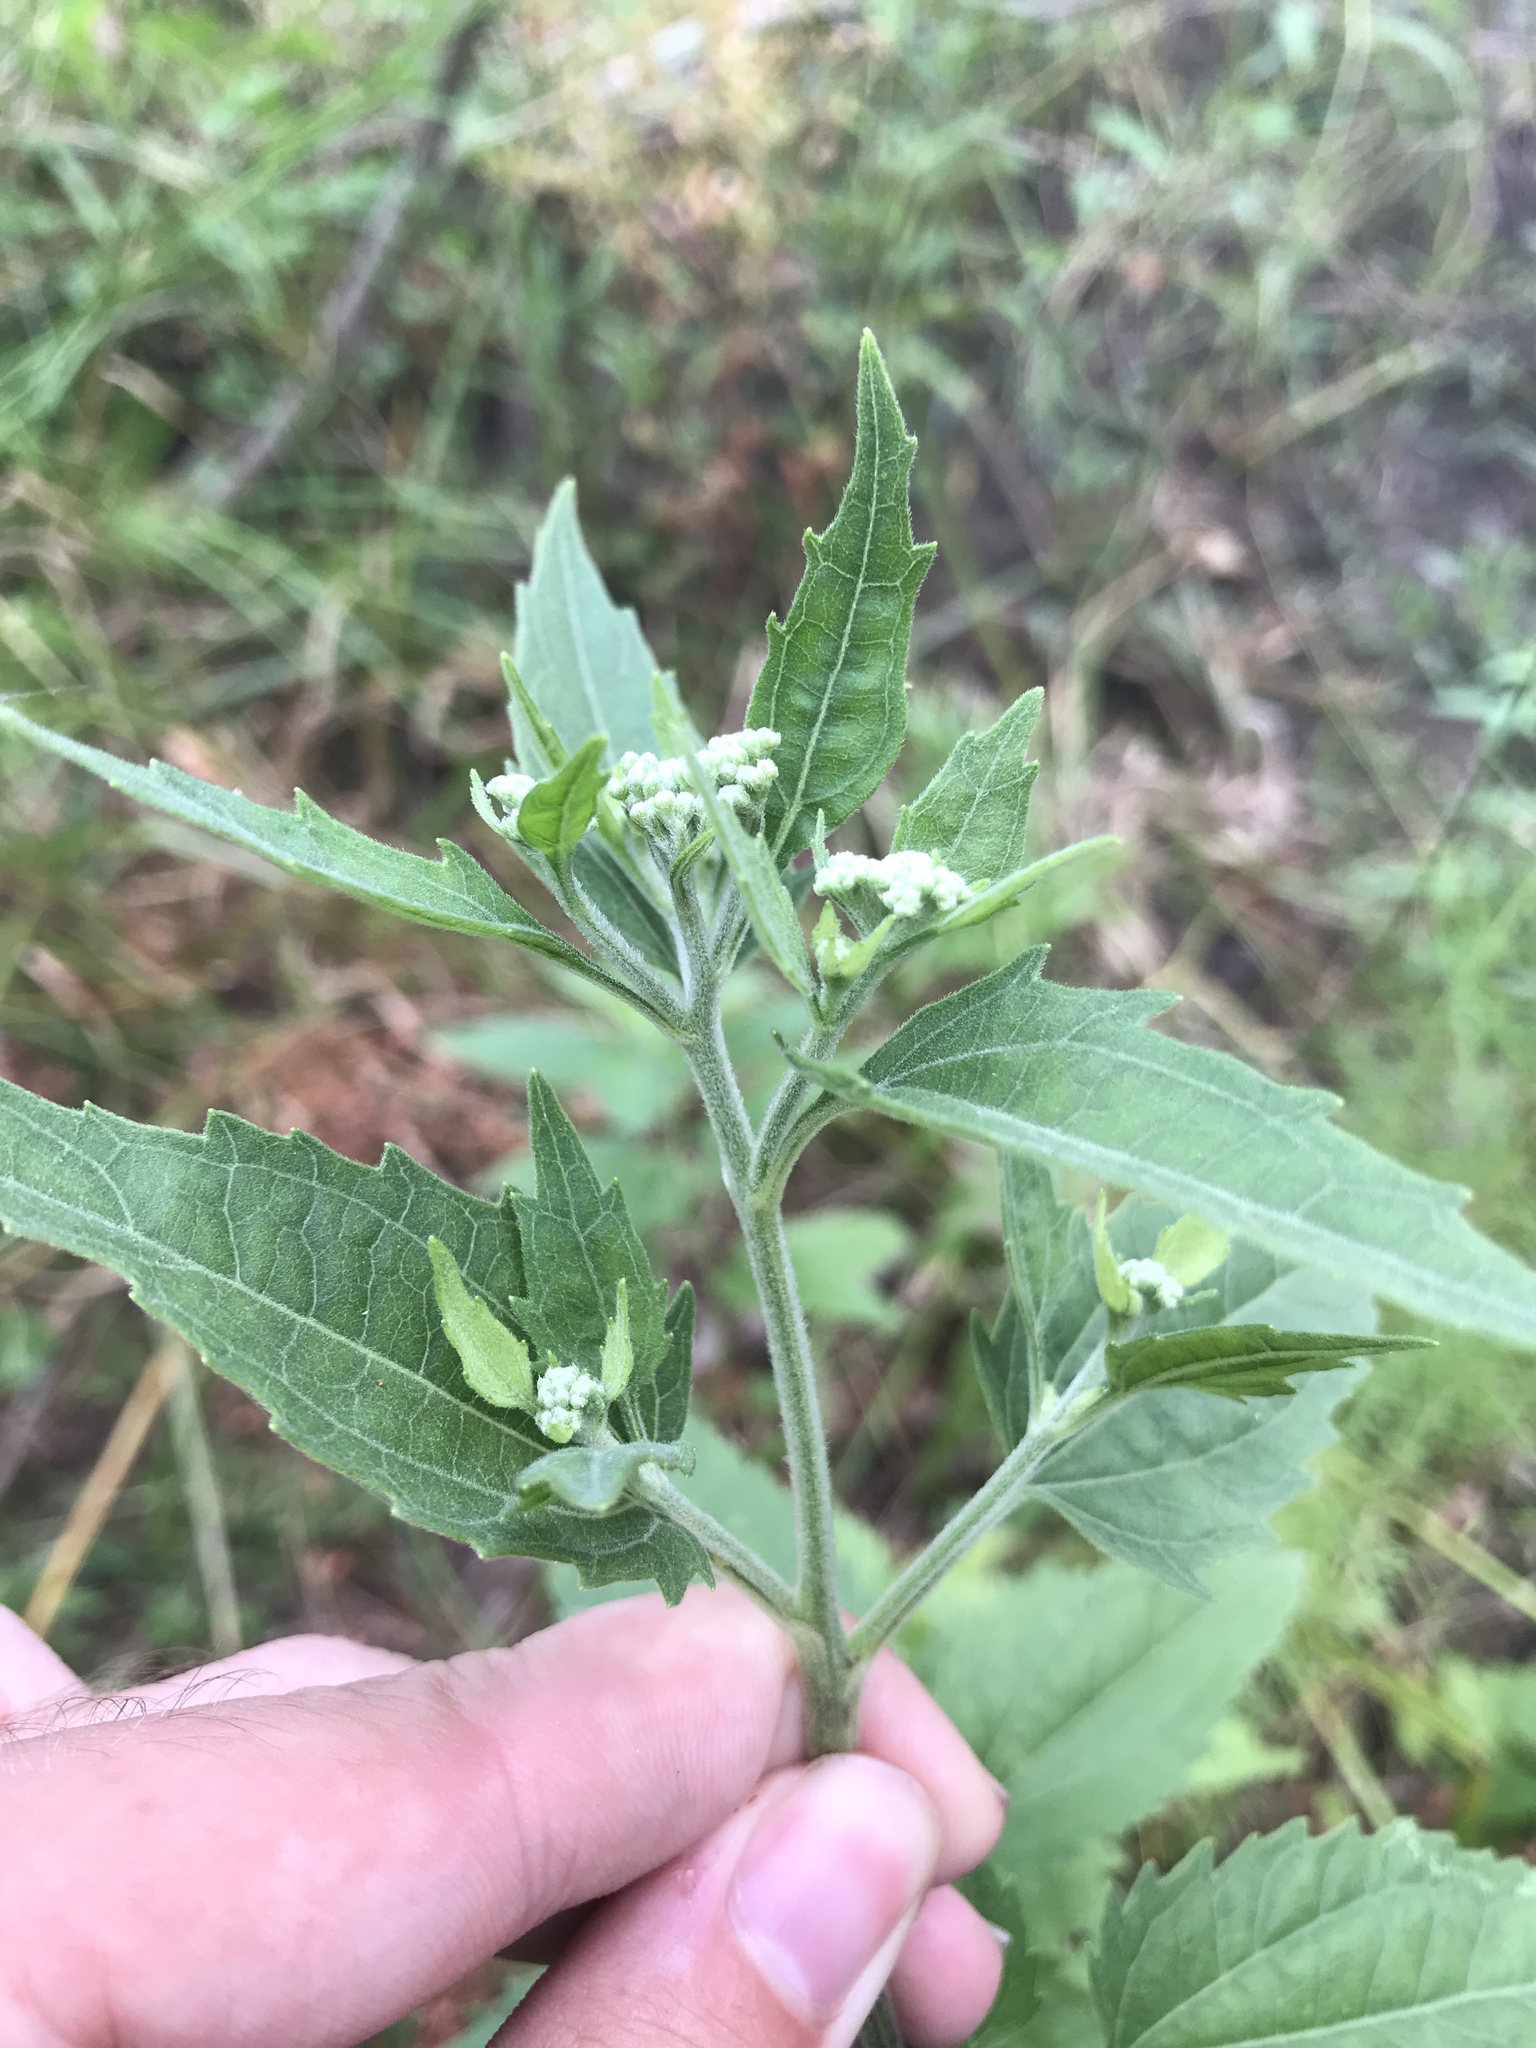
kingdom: Plantae
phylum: Tracheophyta
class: Magnoliopsida
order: Asterales
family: Asteraceae
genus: Eupatorium
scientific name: Eupatorium serotinum
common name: Late boneset
